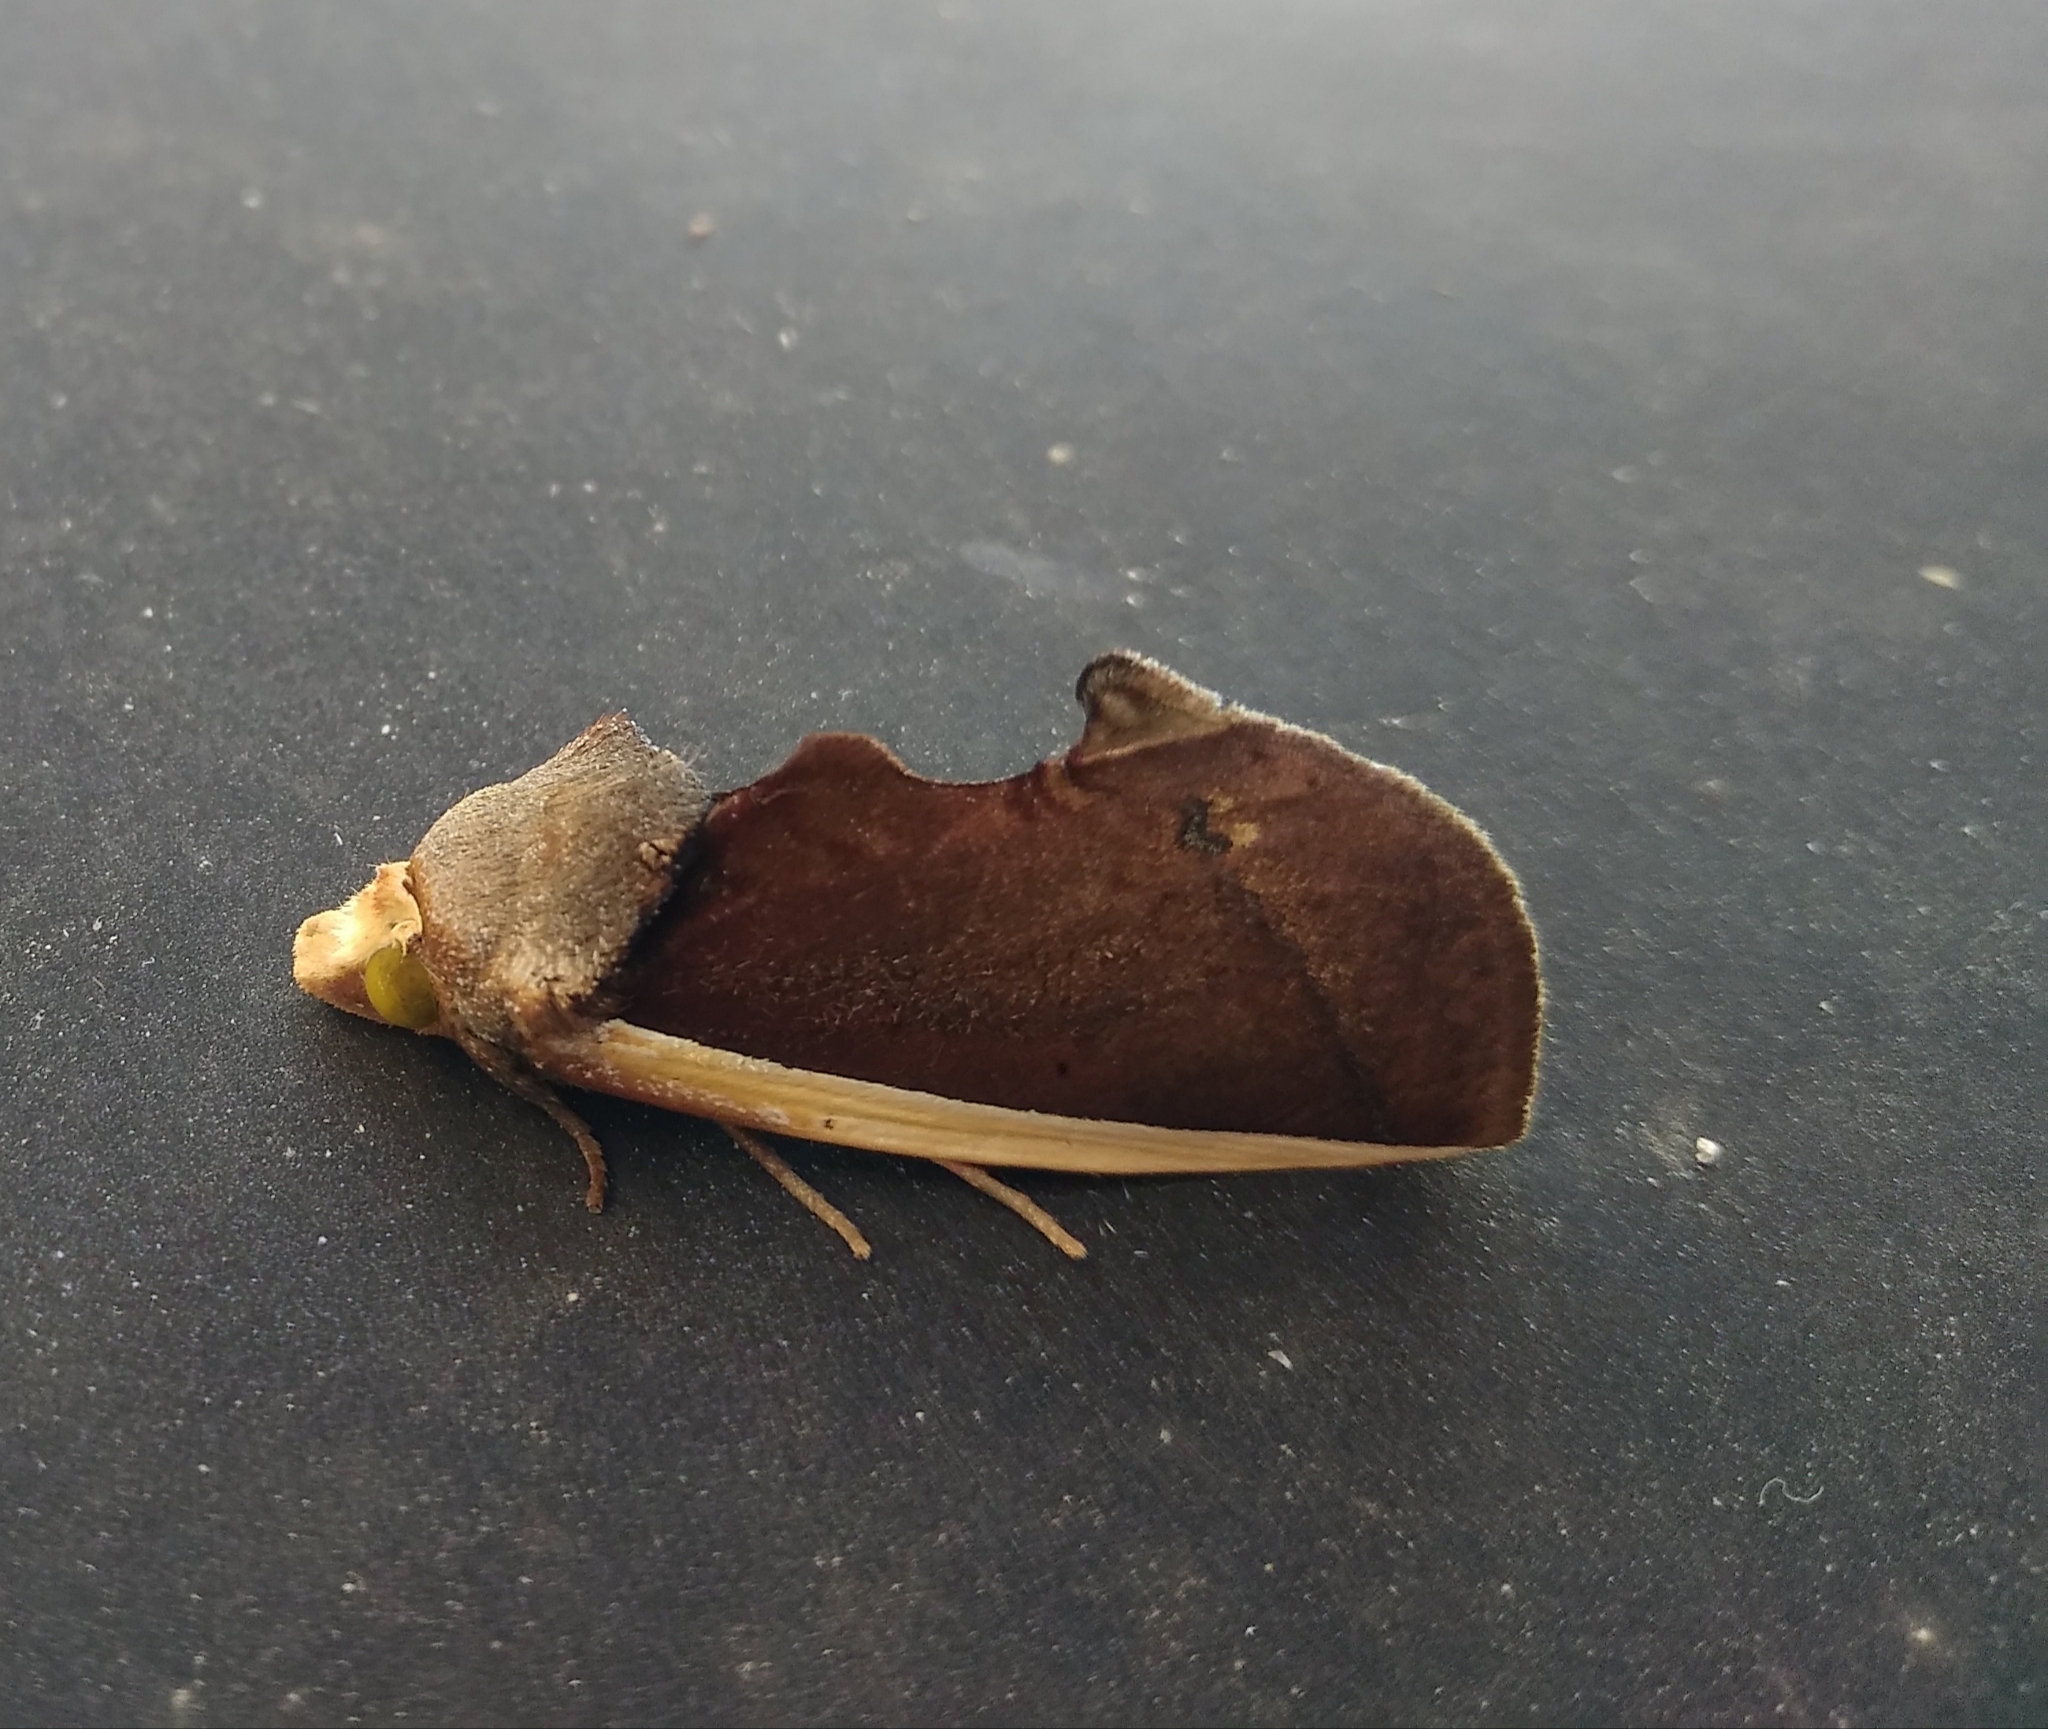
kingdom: Animalia
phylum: Arthropoda
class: Insecta
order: Lepidoptera
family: Erebidae
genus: Gonodonta
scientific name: Gonodonta pyrgo
